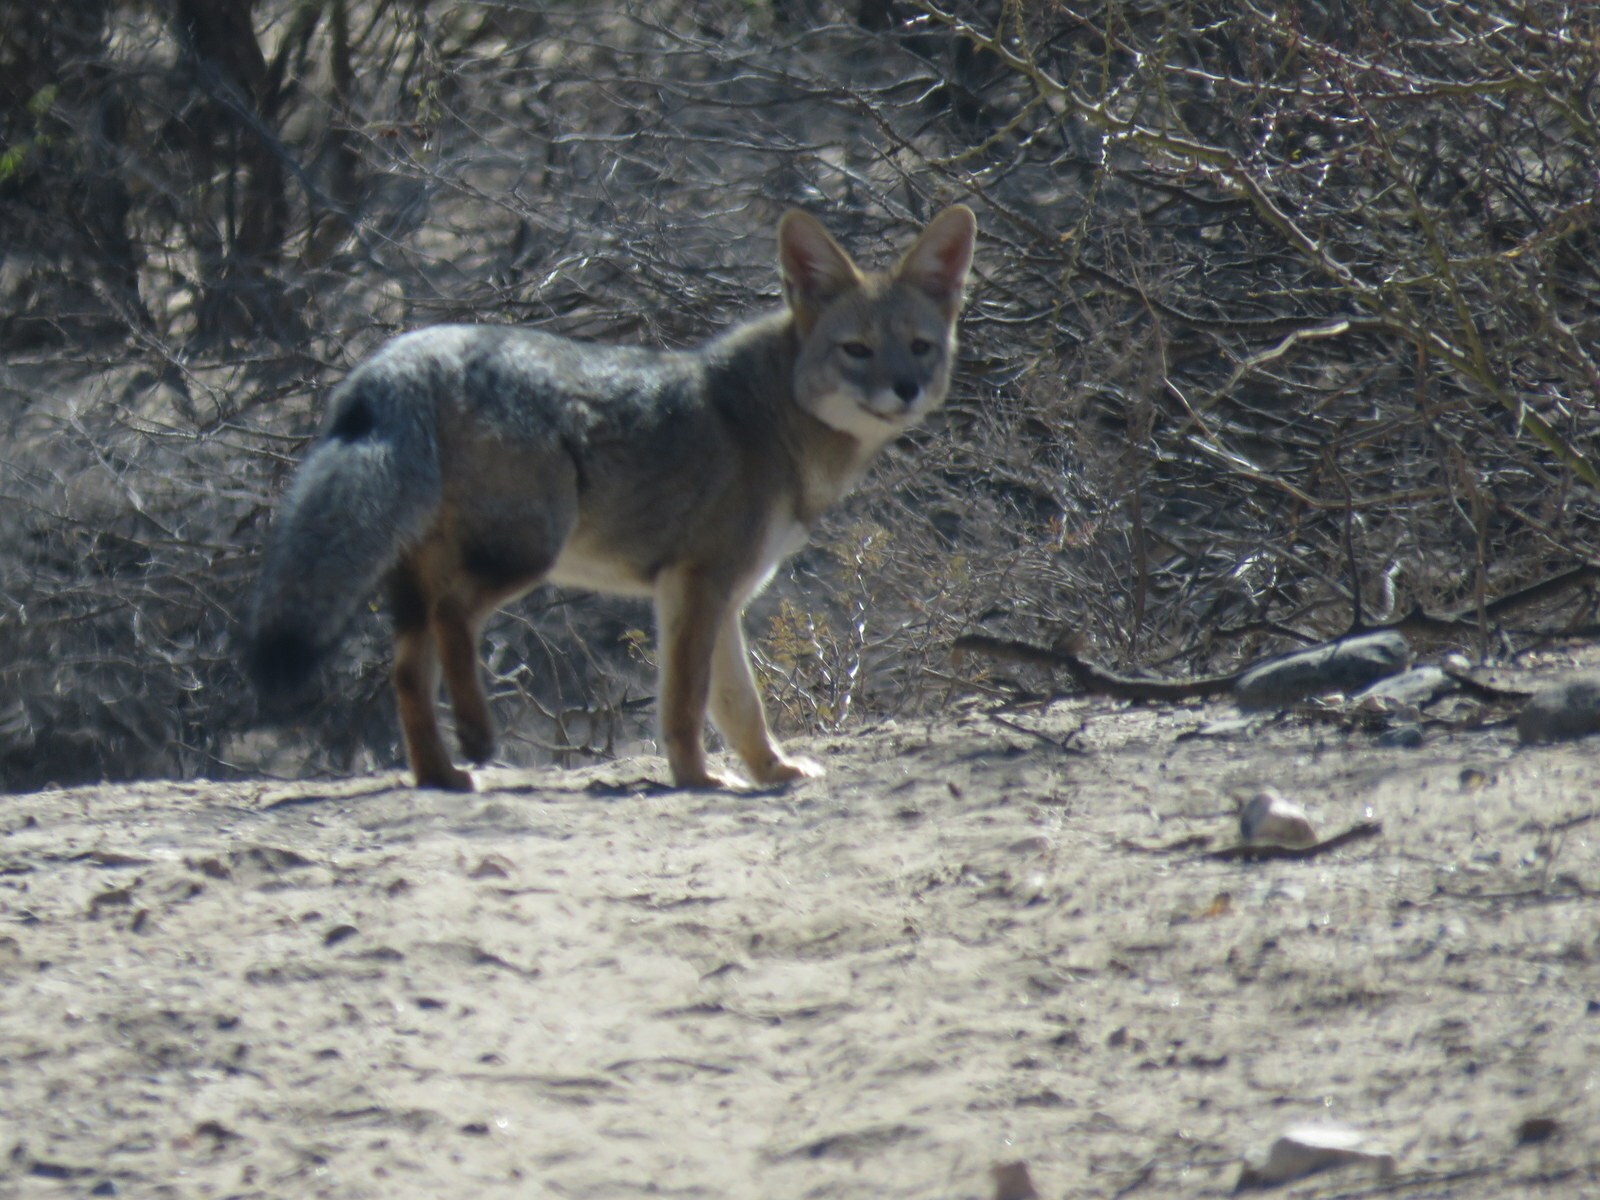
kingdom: Animalia
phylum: Chordata
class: Mammalia
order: Carnivora
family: Canidae
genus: Lycalopex
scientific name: Lycalopex gymnocercus
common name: Pampas fox
